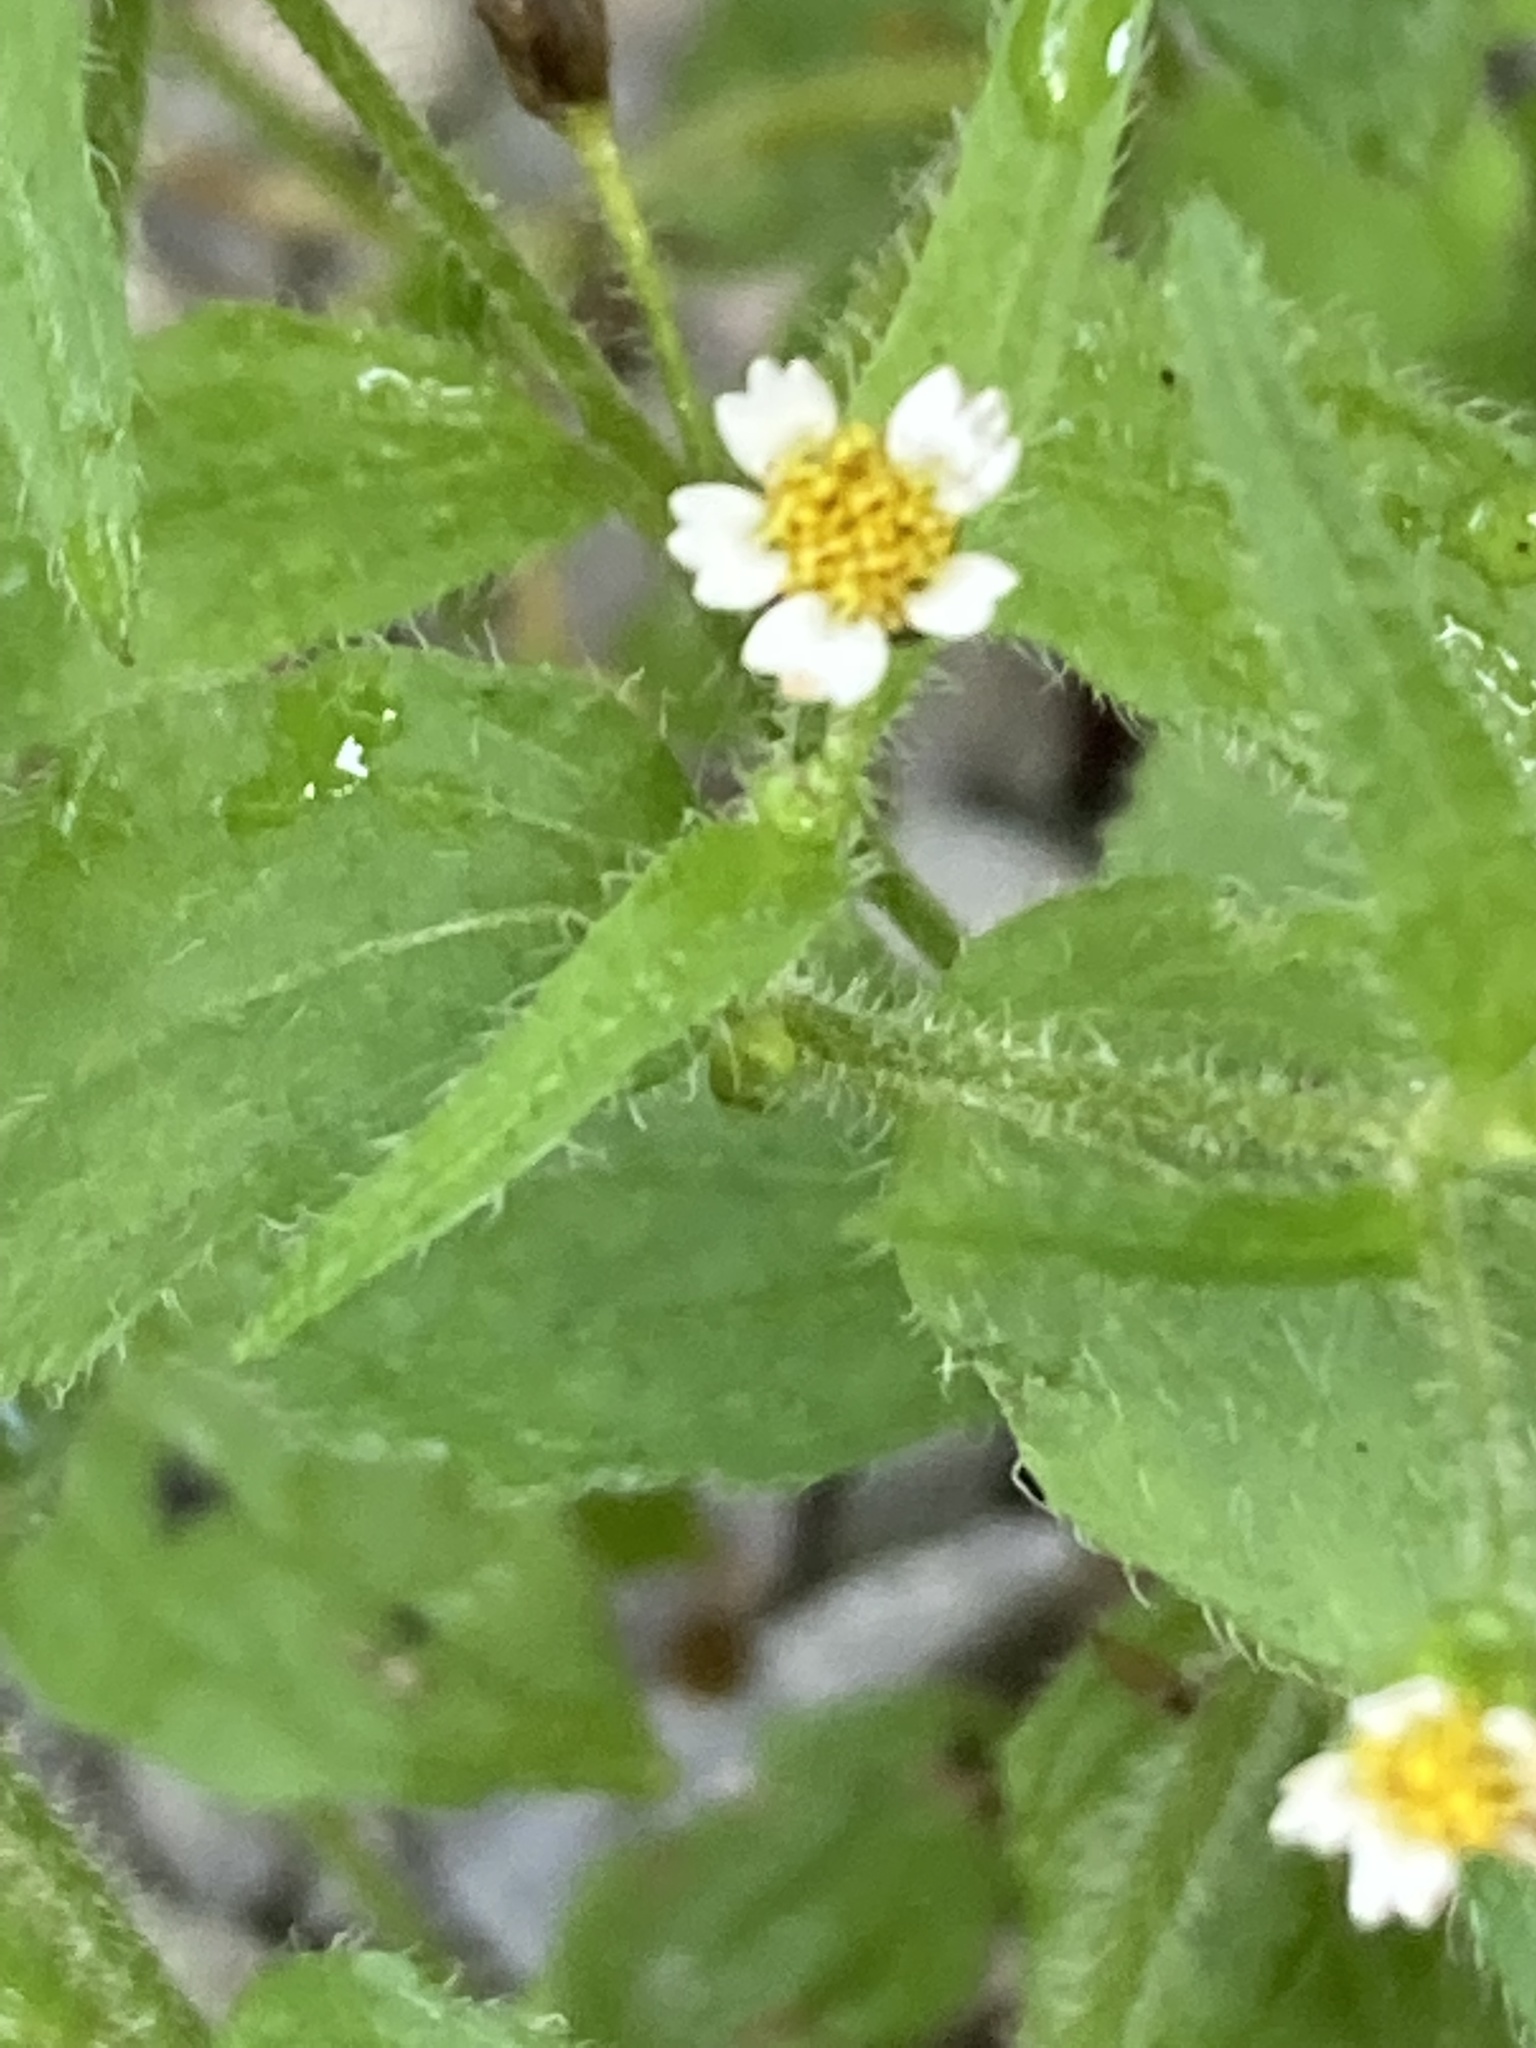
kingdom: Plantae
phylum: Tracheophyta
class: Magnoliopsida
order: Asterales
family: Asteraceae
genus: Galinsoga
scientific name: Galinsoga quadriradiata
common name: Shaggy soldier
